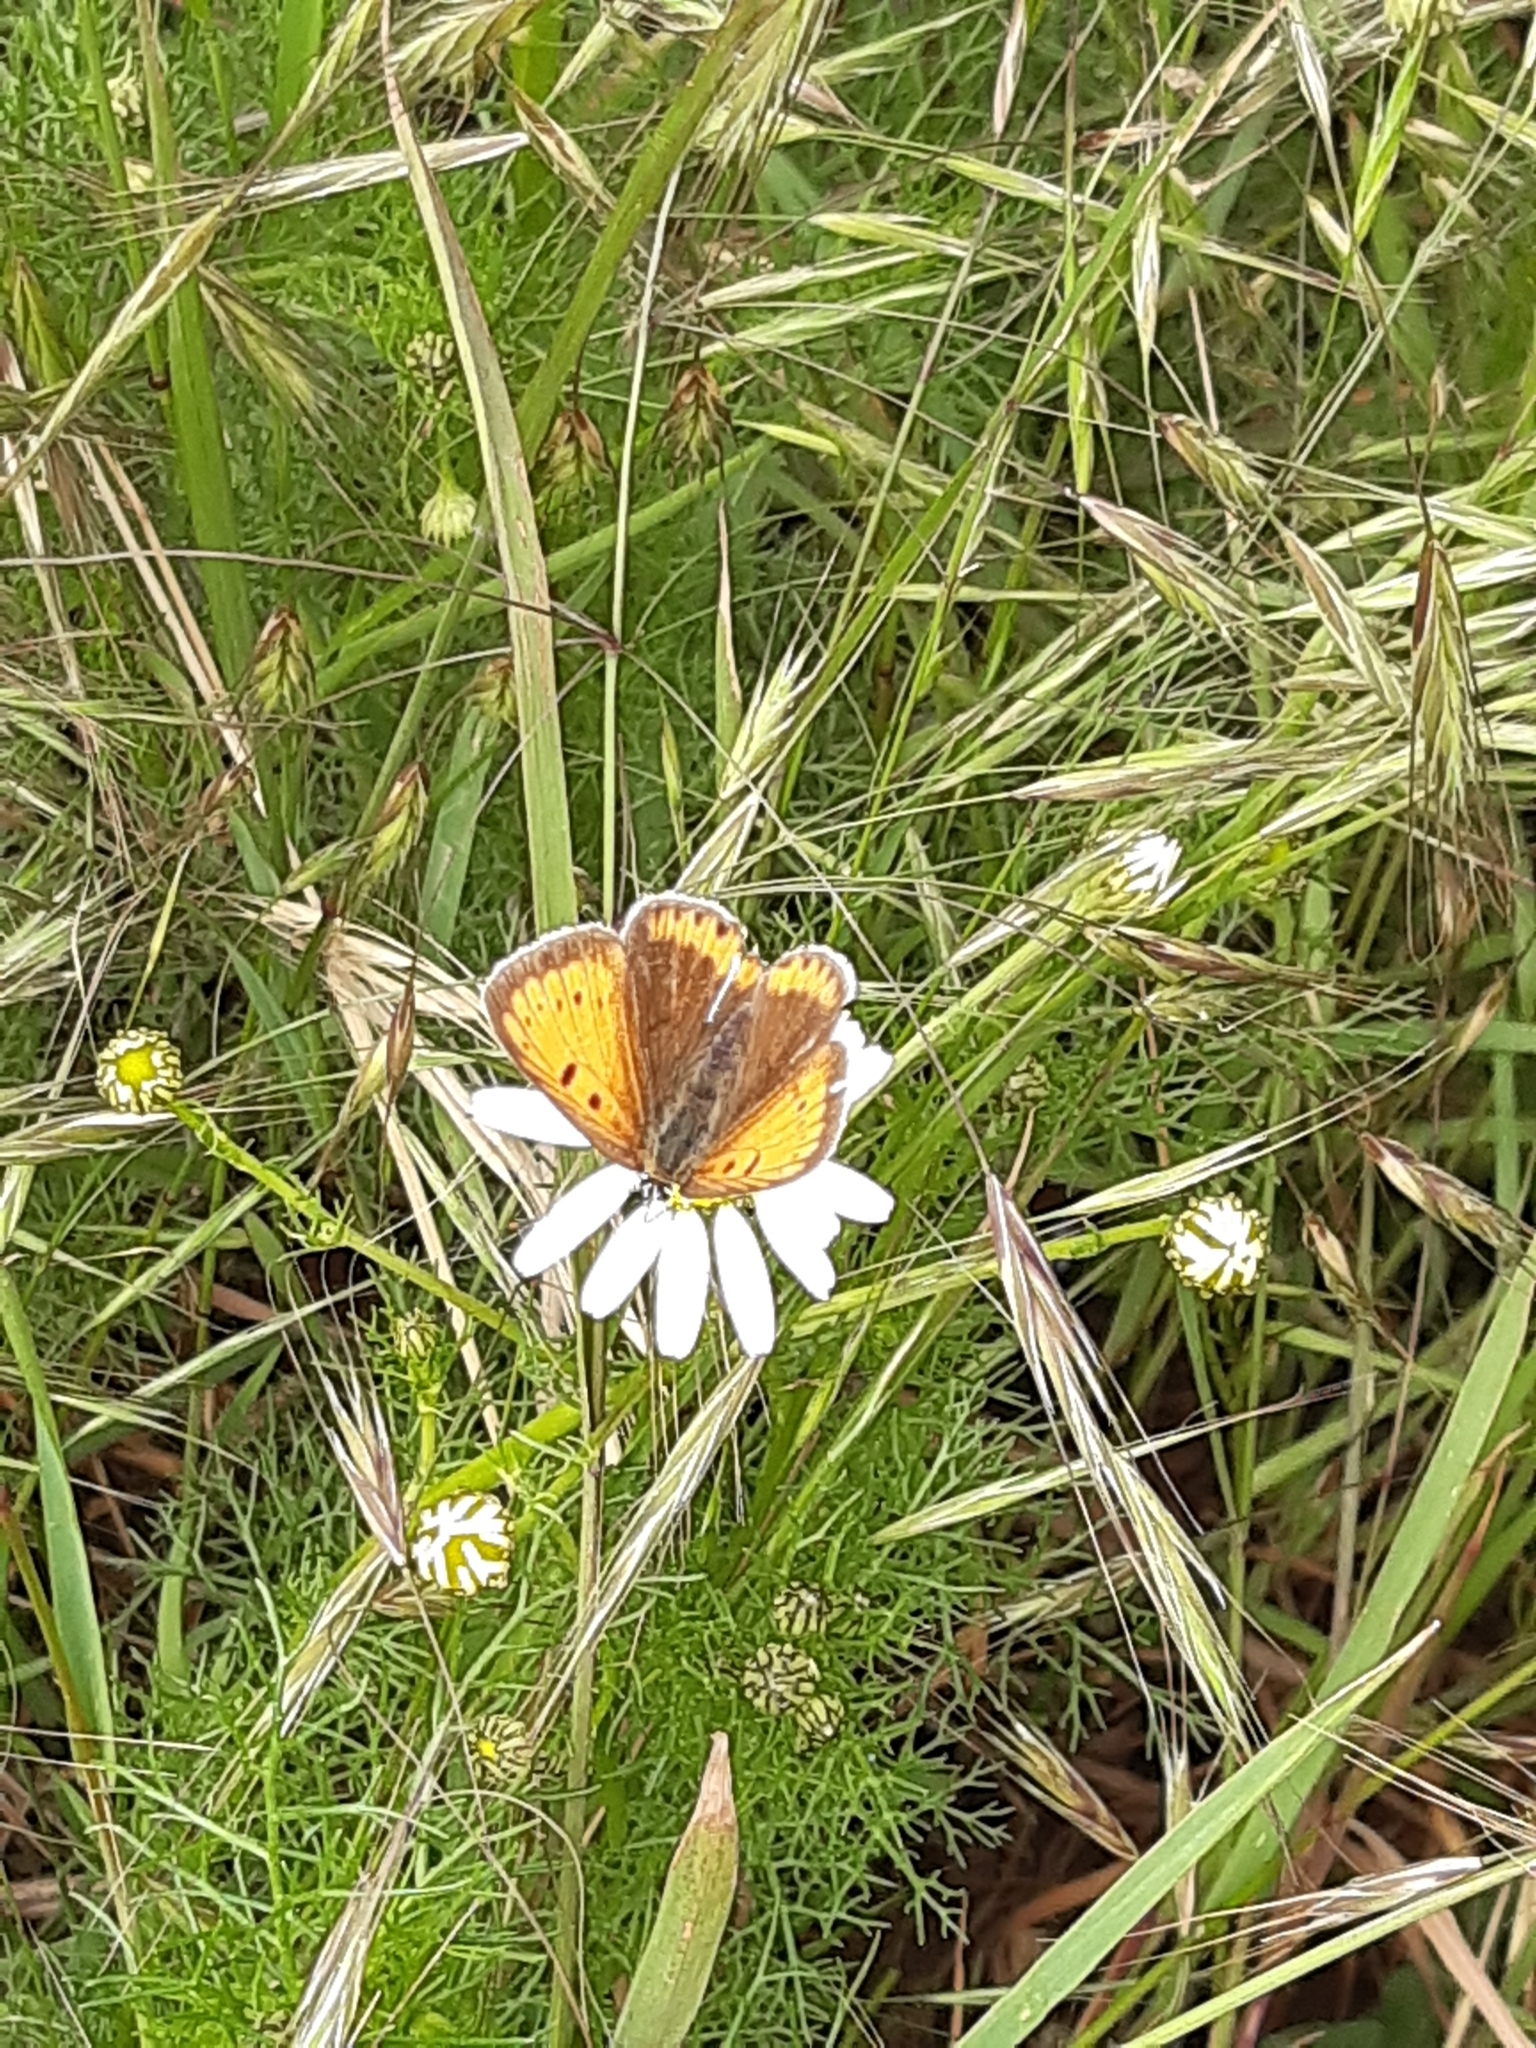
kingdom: Animalia
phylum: Arthropoda
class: Insecta
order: Lepidoptera
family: Lycaenidae
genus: Lycaena
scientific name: Lycaena dispar
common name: Large copper
